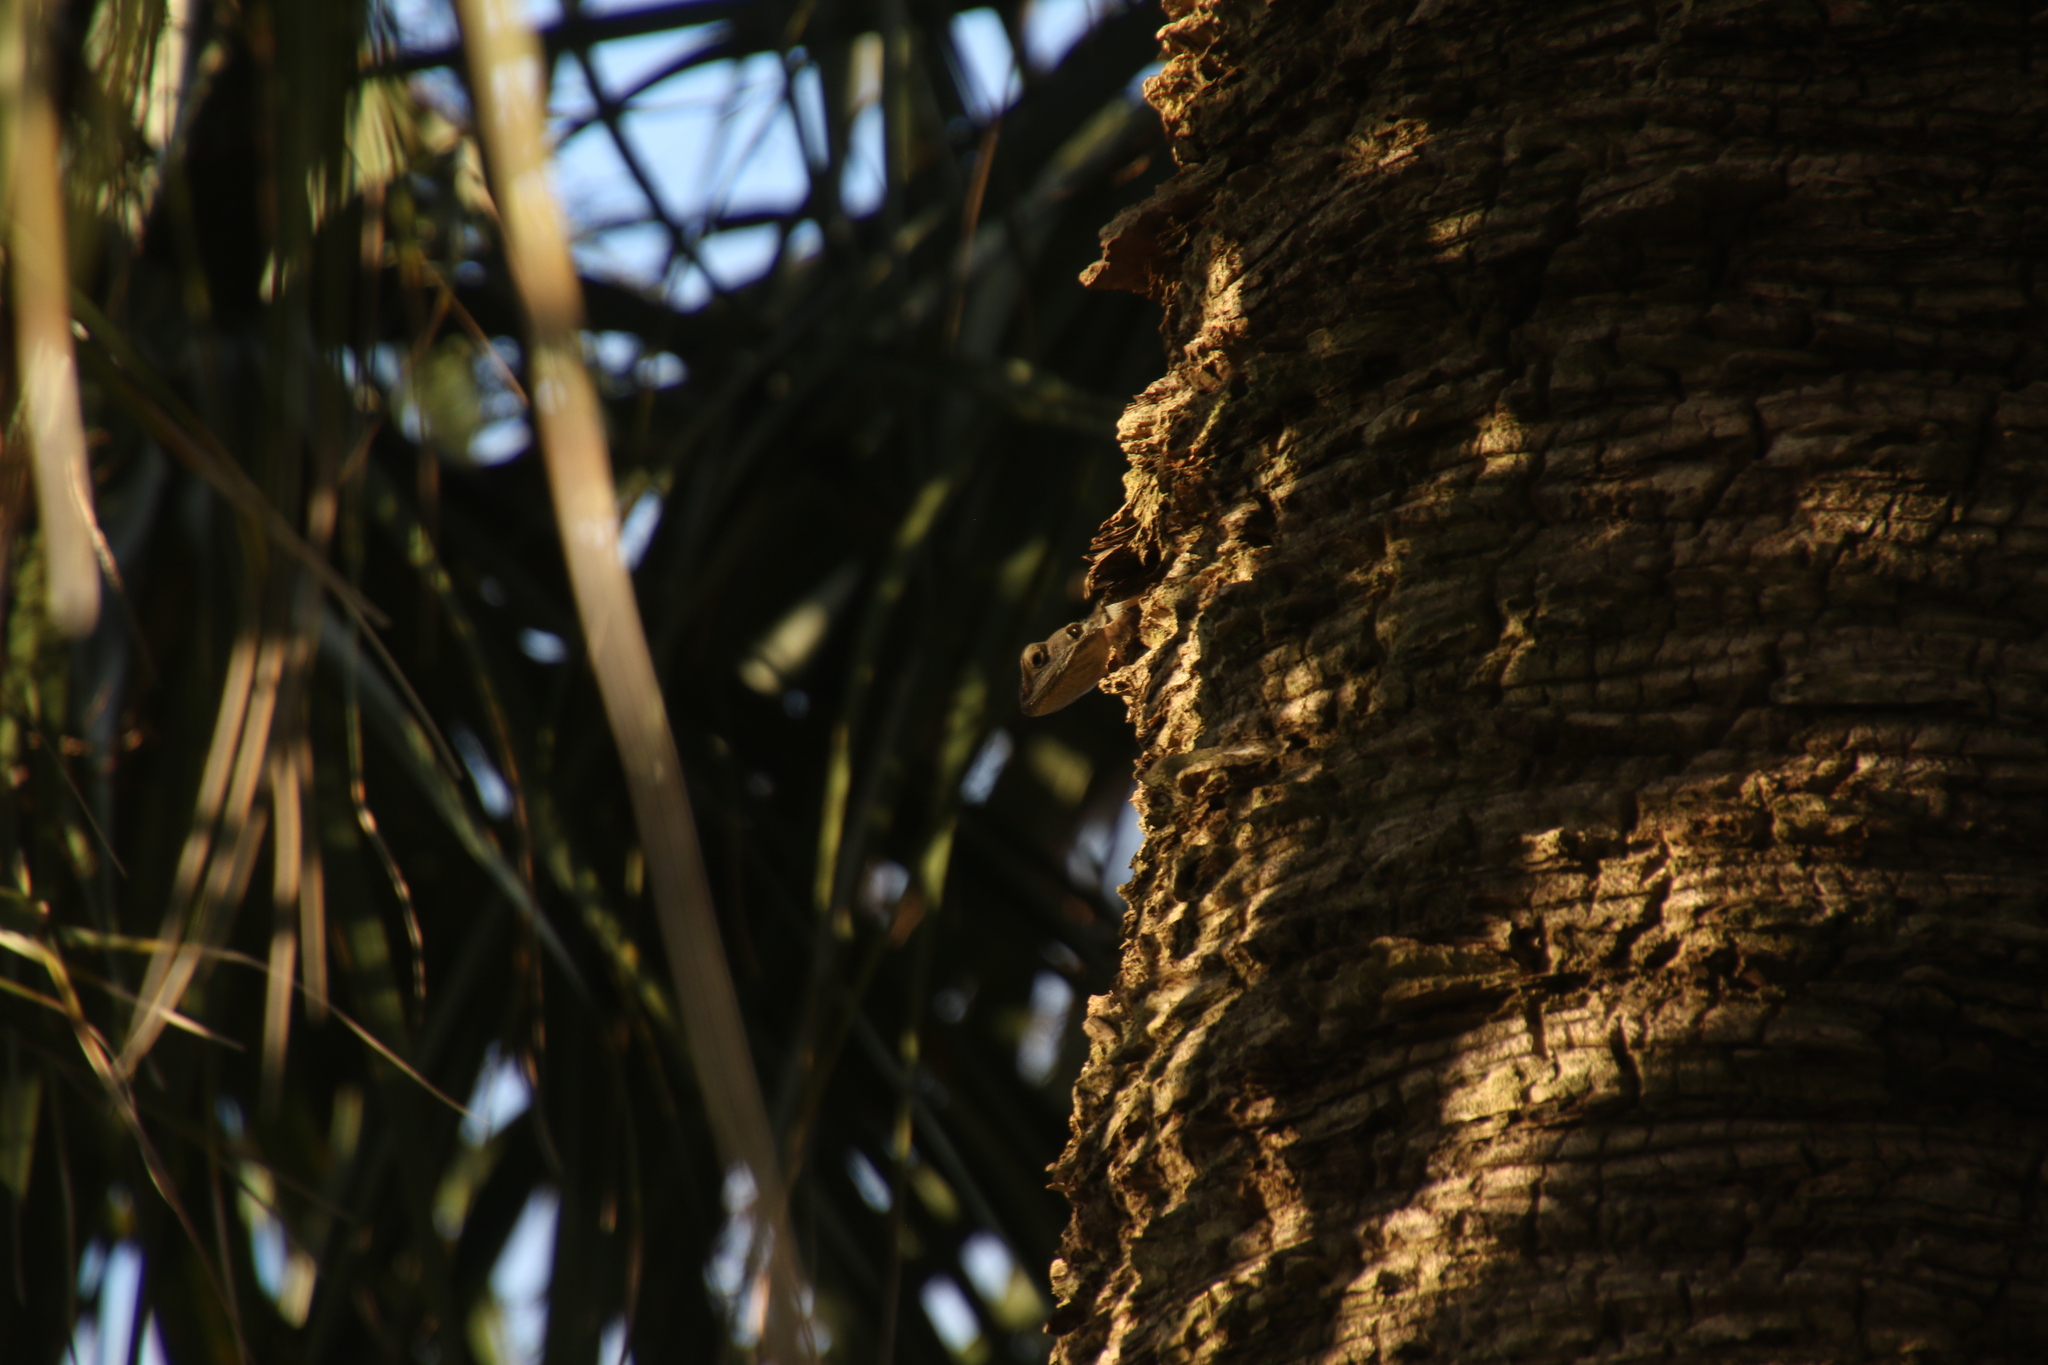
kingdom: Animalia
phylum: Chordata
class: Squamata
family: Agamidae
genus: Agama
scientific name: Agama picticauda
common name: Red-headed agama
